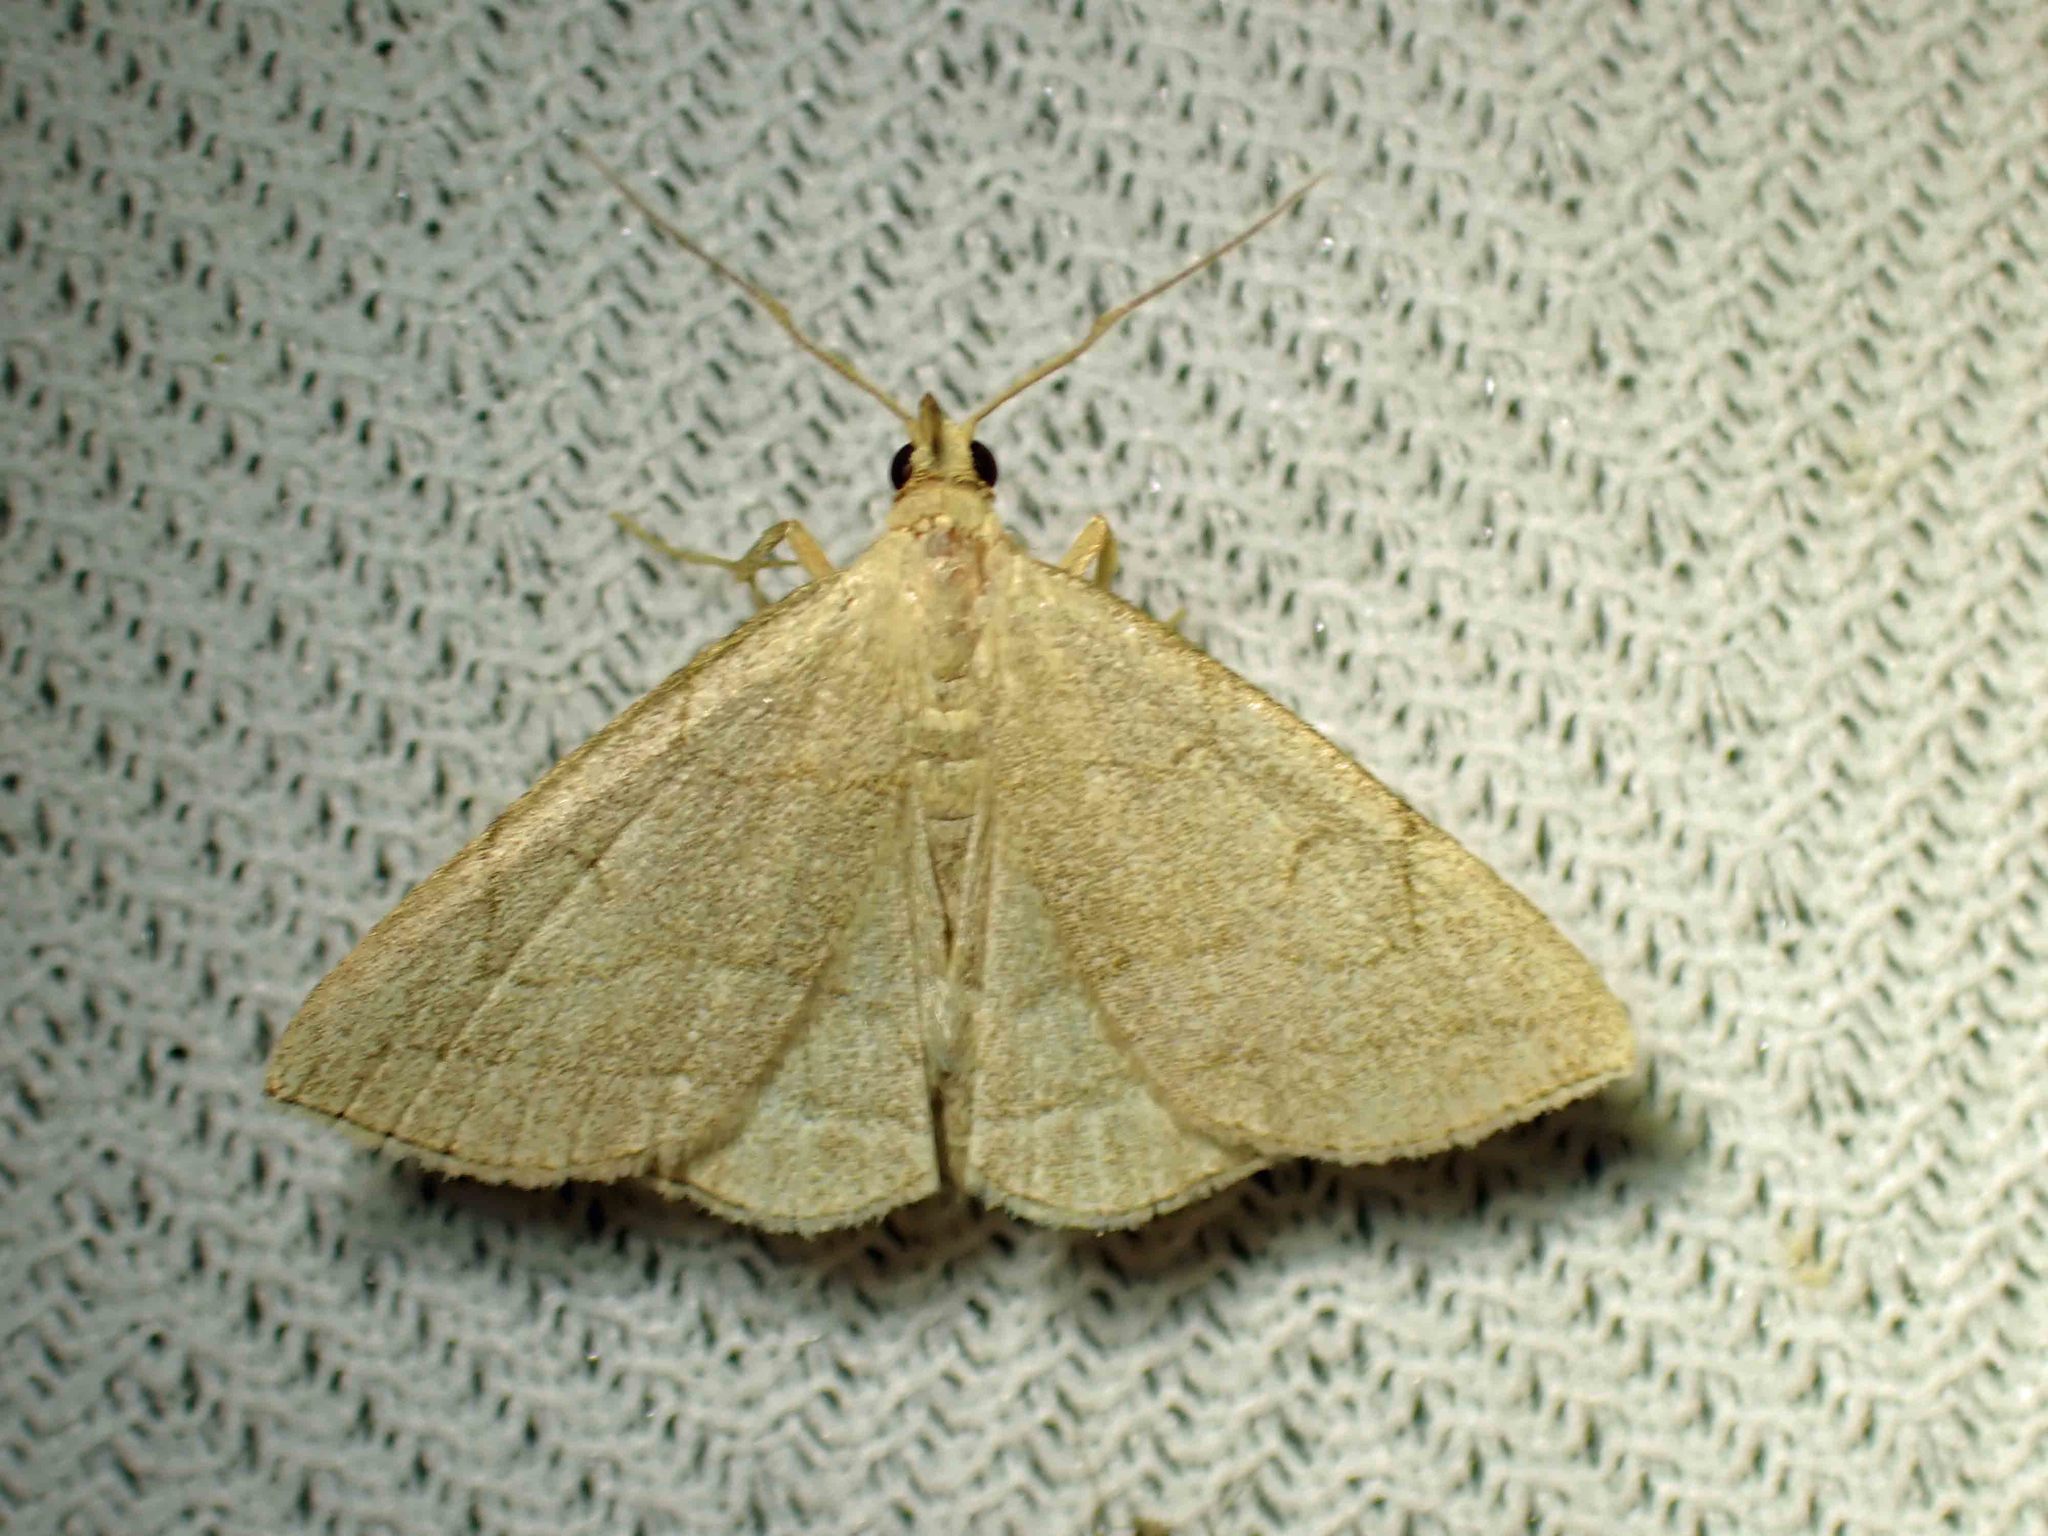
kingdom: Animalia
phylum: Arthropoda
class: Insecta
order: Lepidoptera
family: Erebidae
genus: Zanclognatha
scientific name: Zanclognatha pedipilalis
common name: Grayish fan-foot
